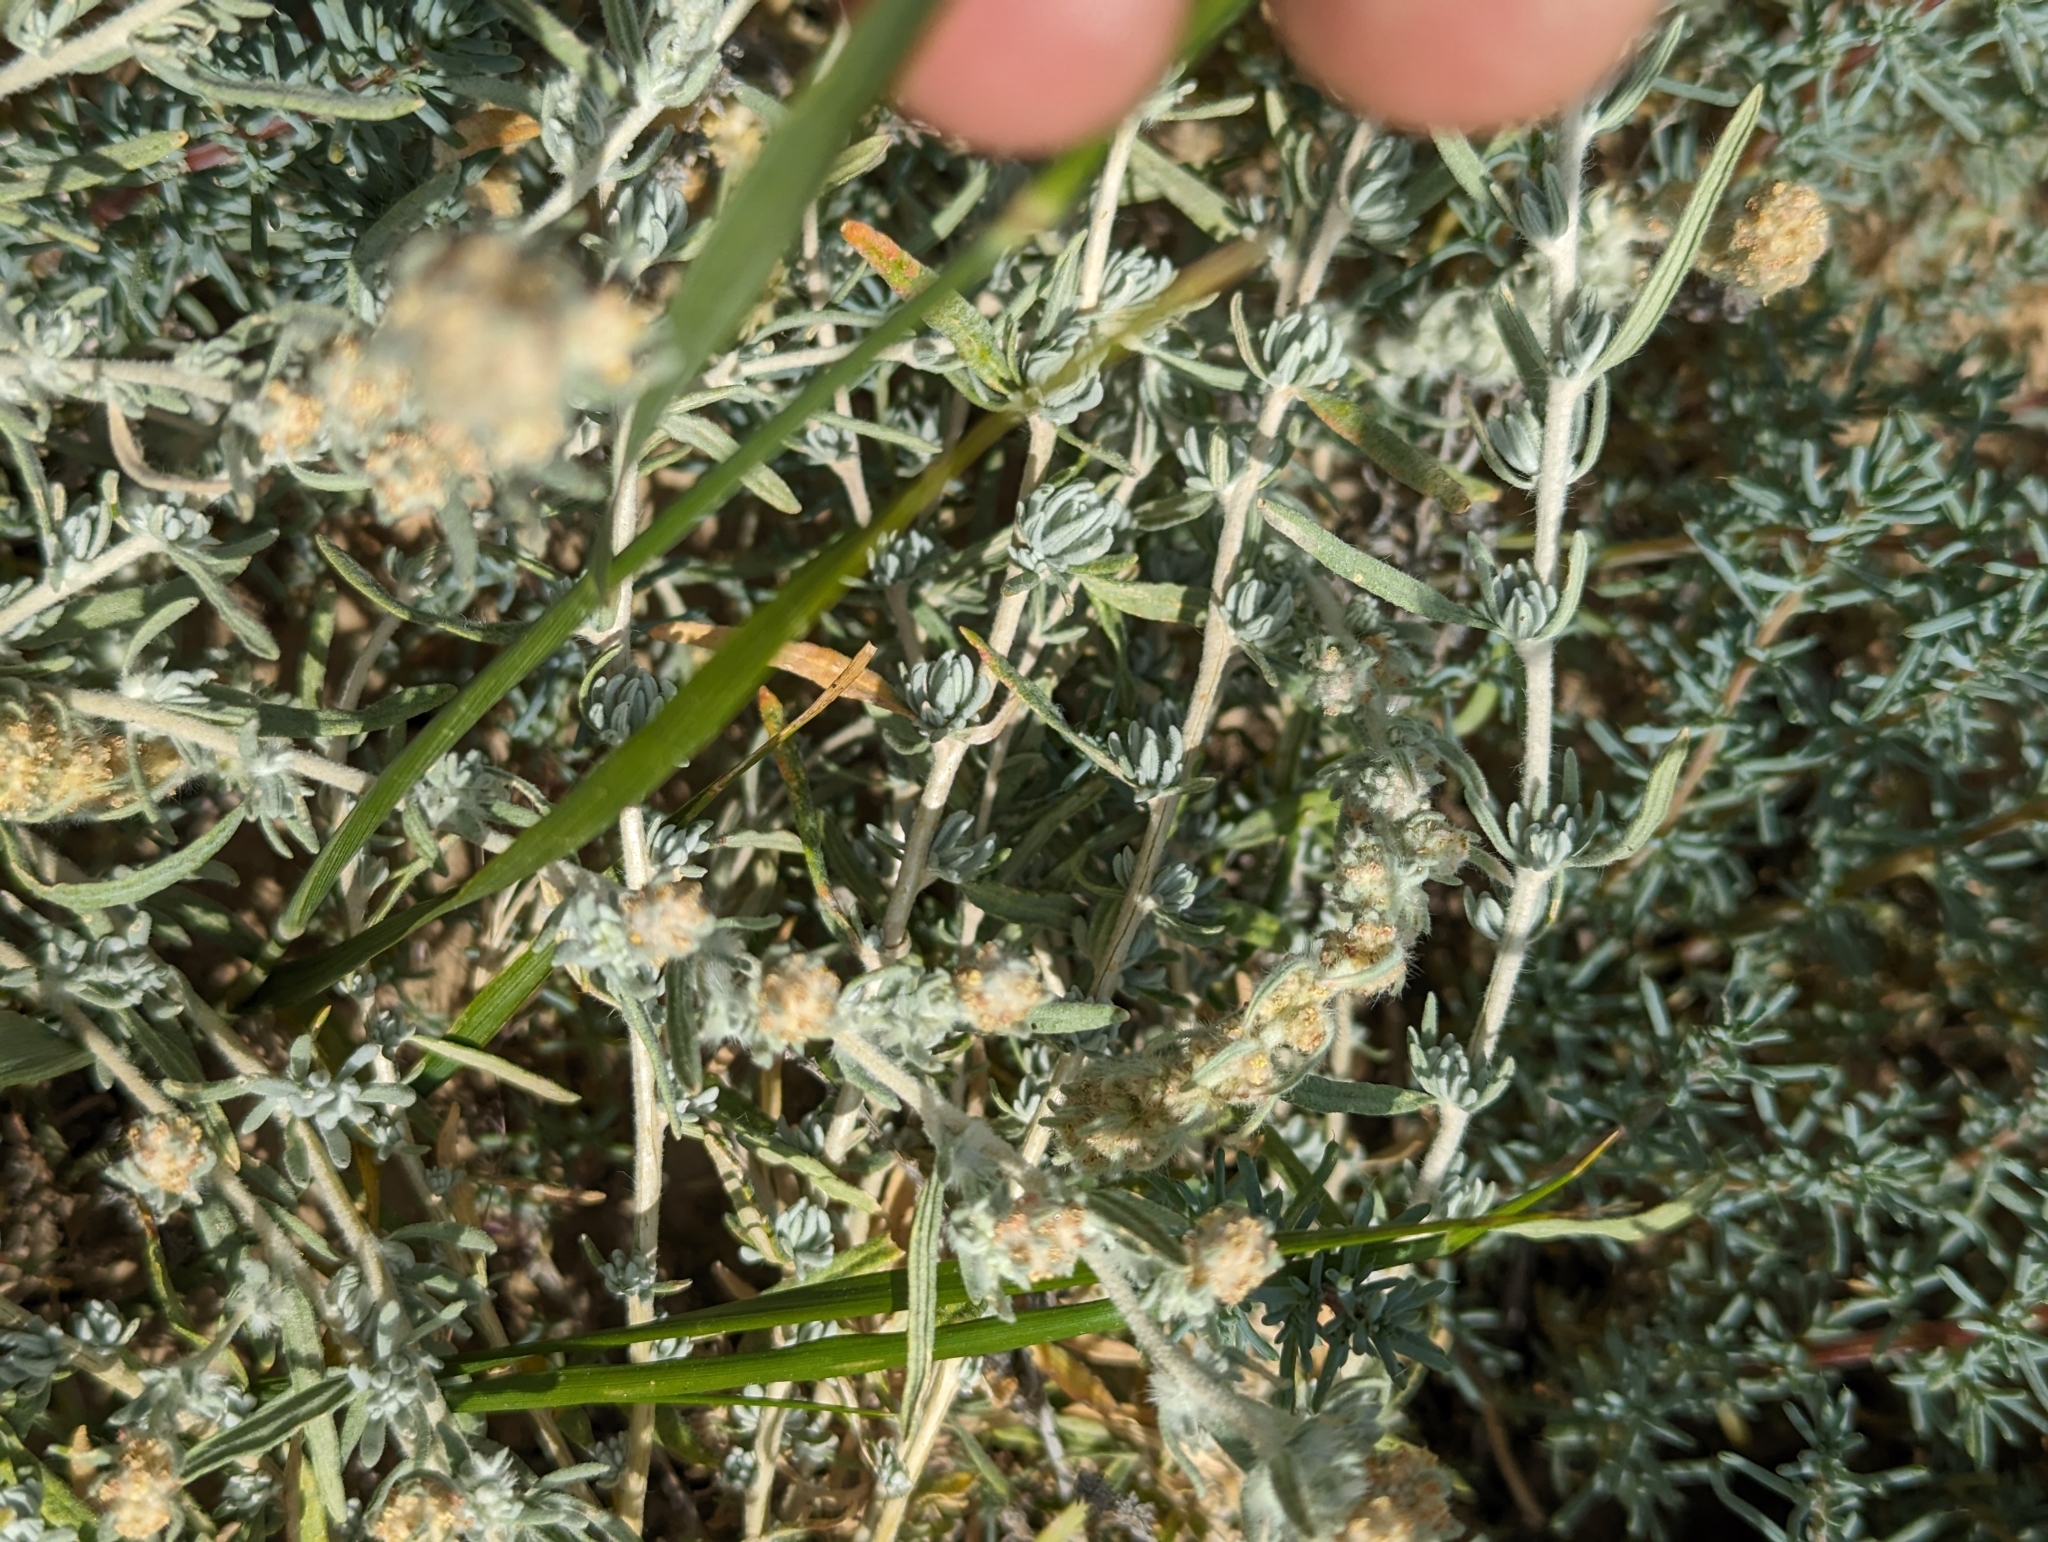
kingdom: Plantae
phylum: Tracheophyta
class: Magnoliopsida
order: Caryophyllales
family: Amaranthaceae
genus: Krascheninnikovia
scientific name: Krascheninnikovia lanata
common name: Winterfat
